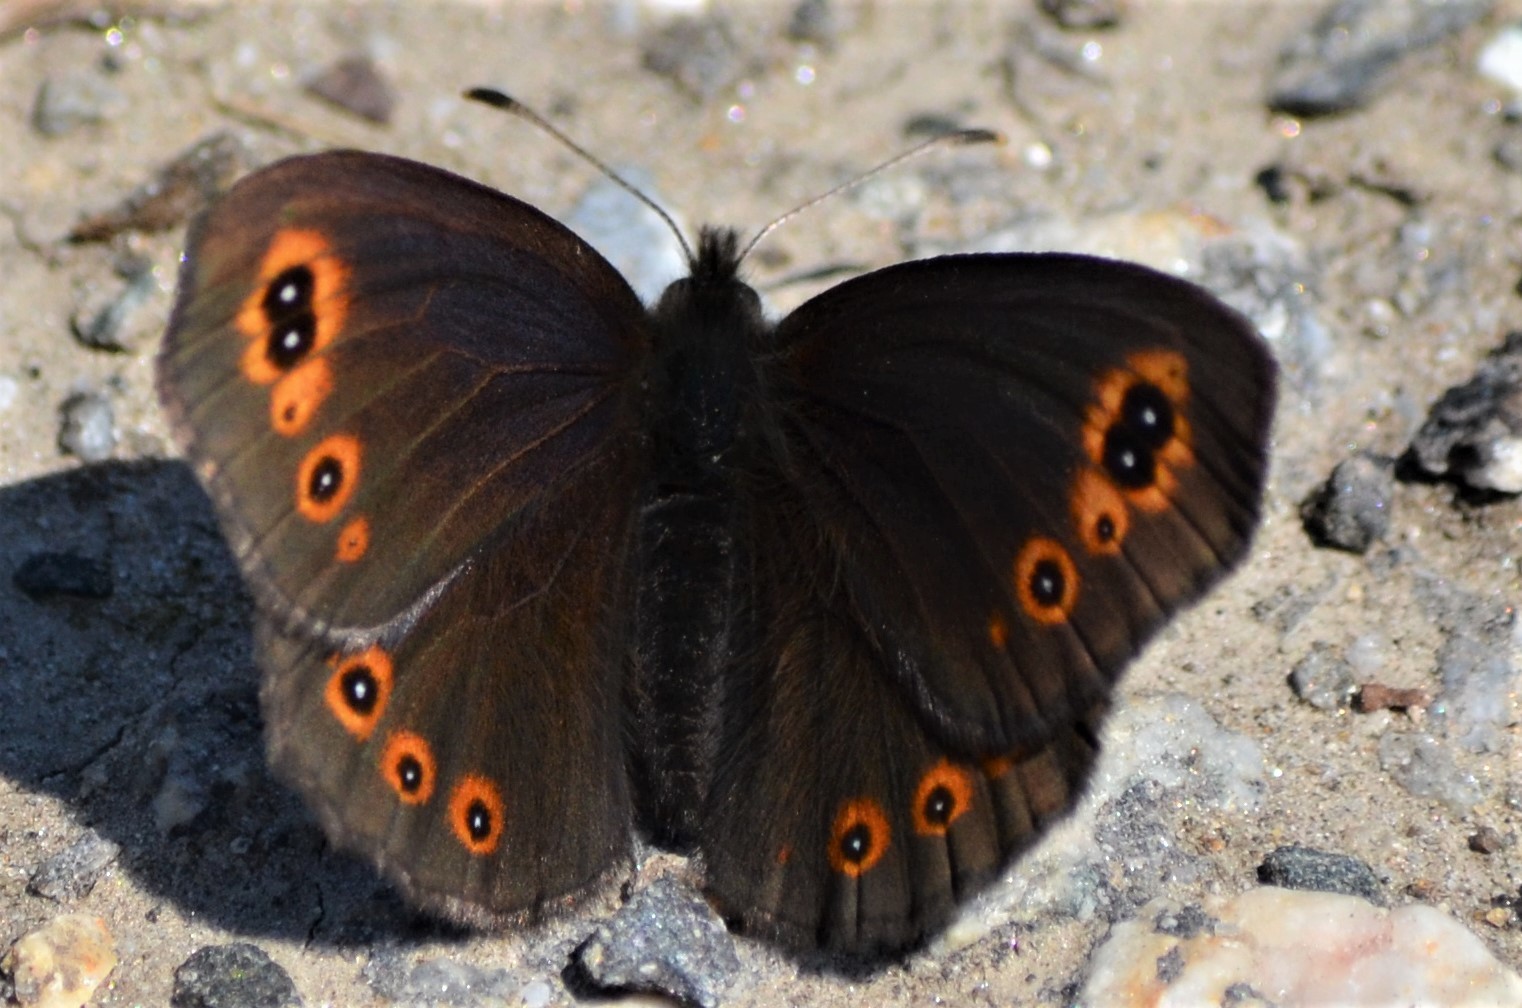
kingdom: Animalia
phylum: Arthropoda
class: Insecta
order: Lepidoptera
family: Nymphalidae
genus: Erebia
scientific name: Erebia medusa
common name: Woodland ringlet
